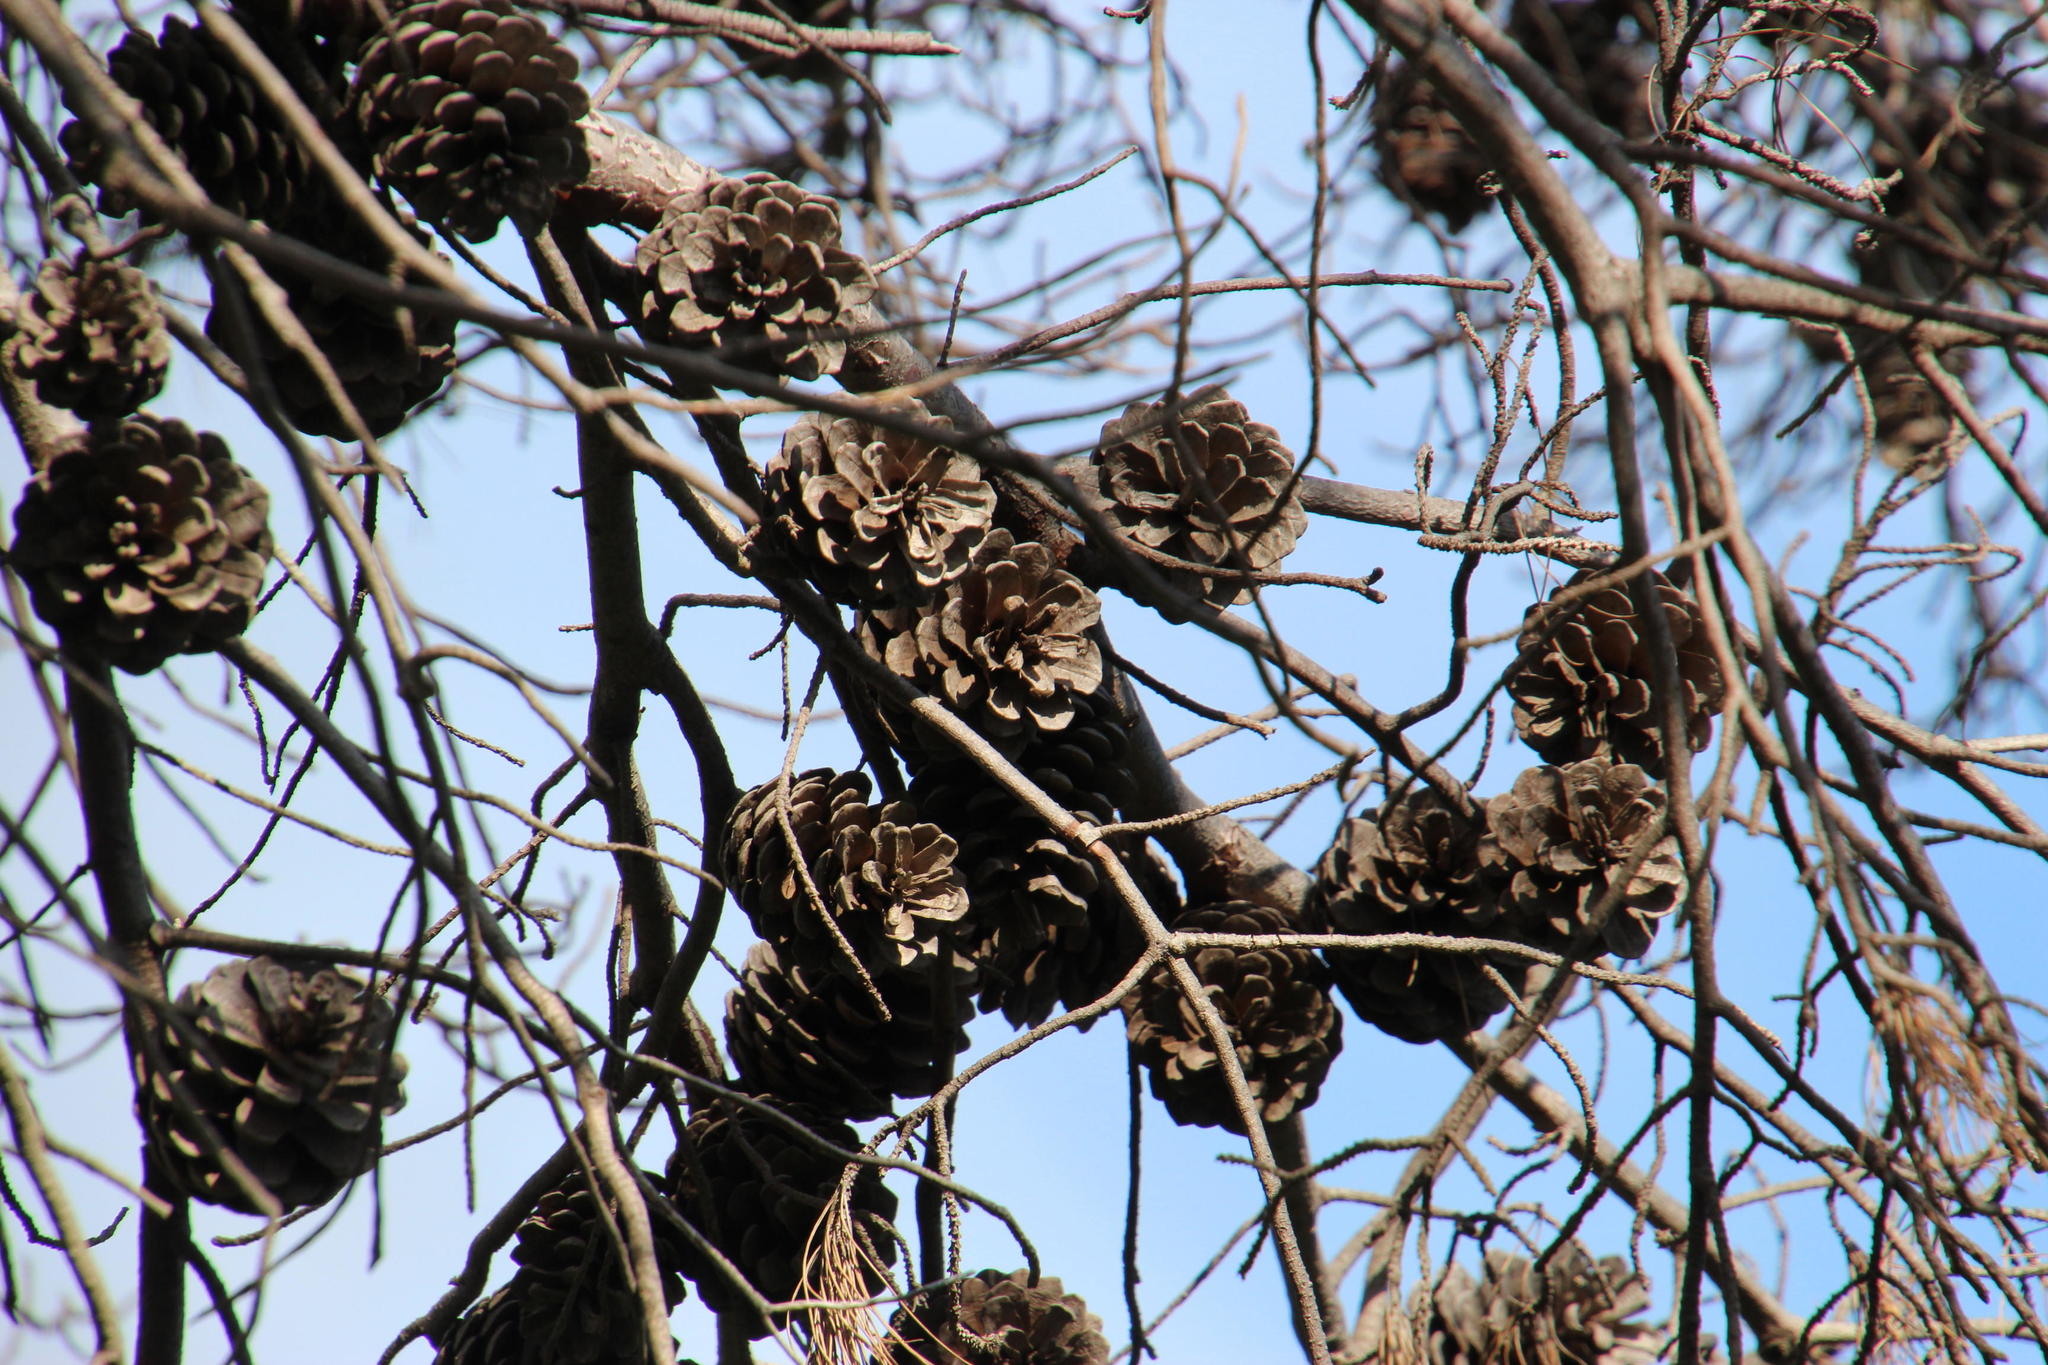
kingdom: Plantae
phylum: Tracheophyta
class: Pinopsida
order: Pinales
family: Pinaceae
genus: Pinus
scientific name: Pinus radiata
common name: Monterey pine
